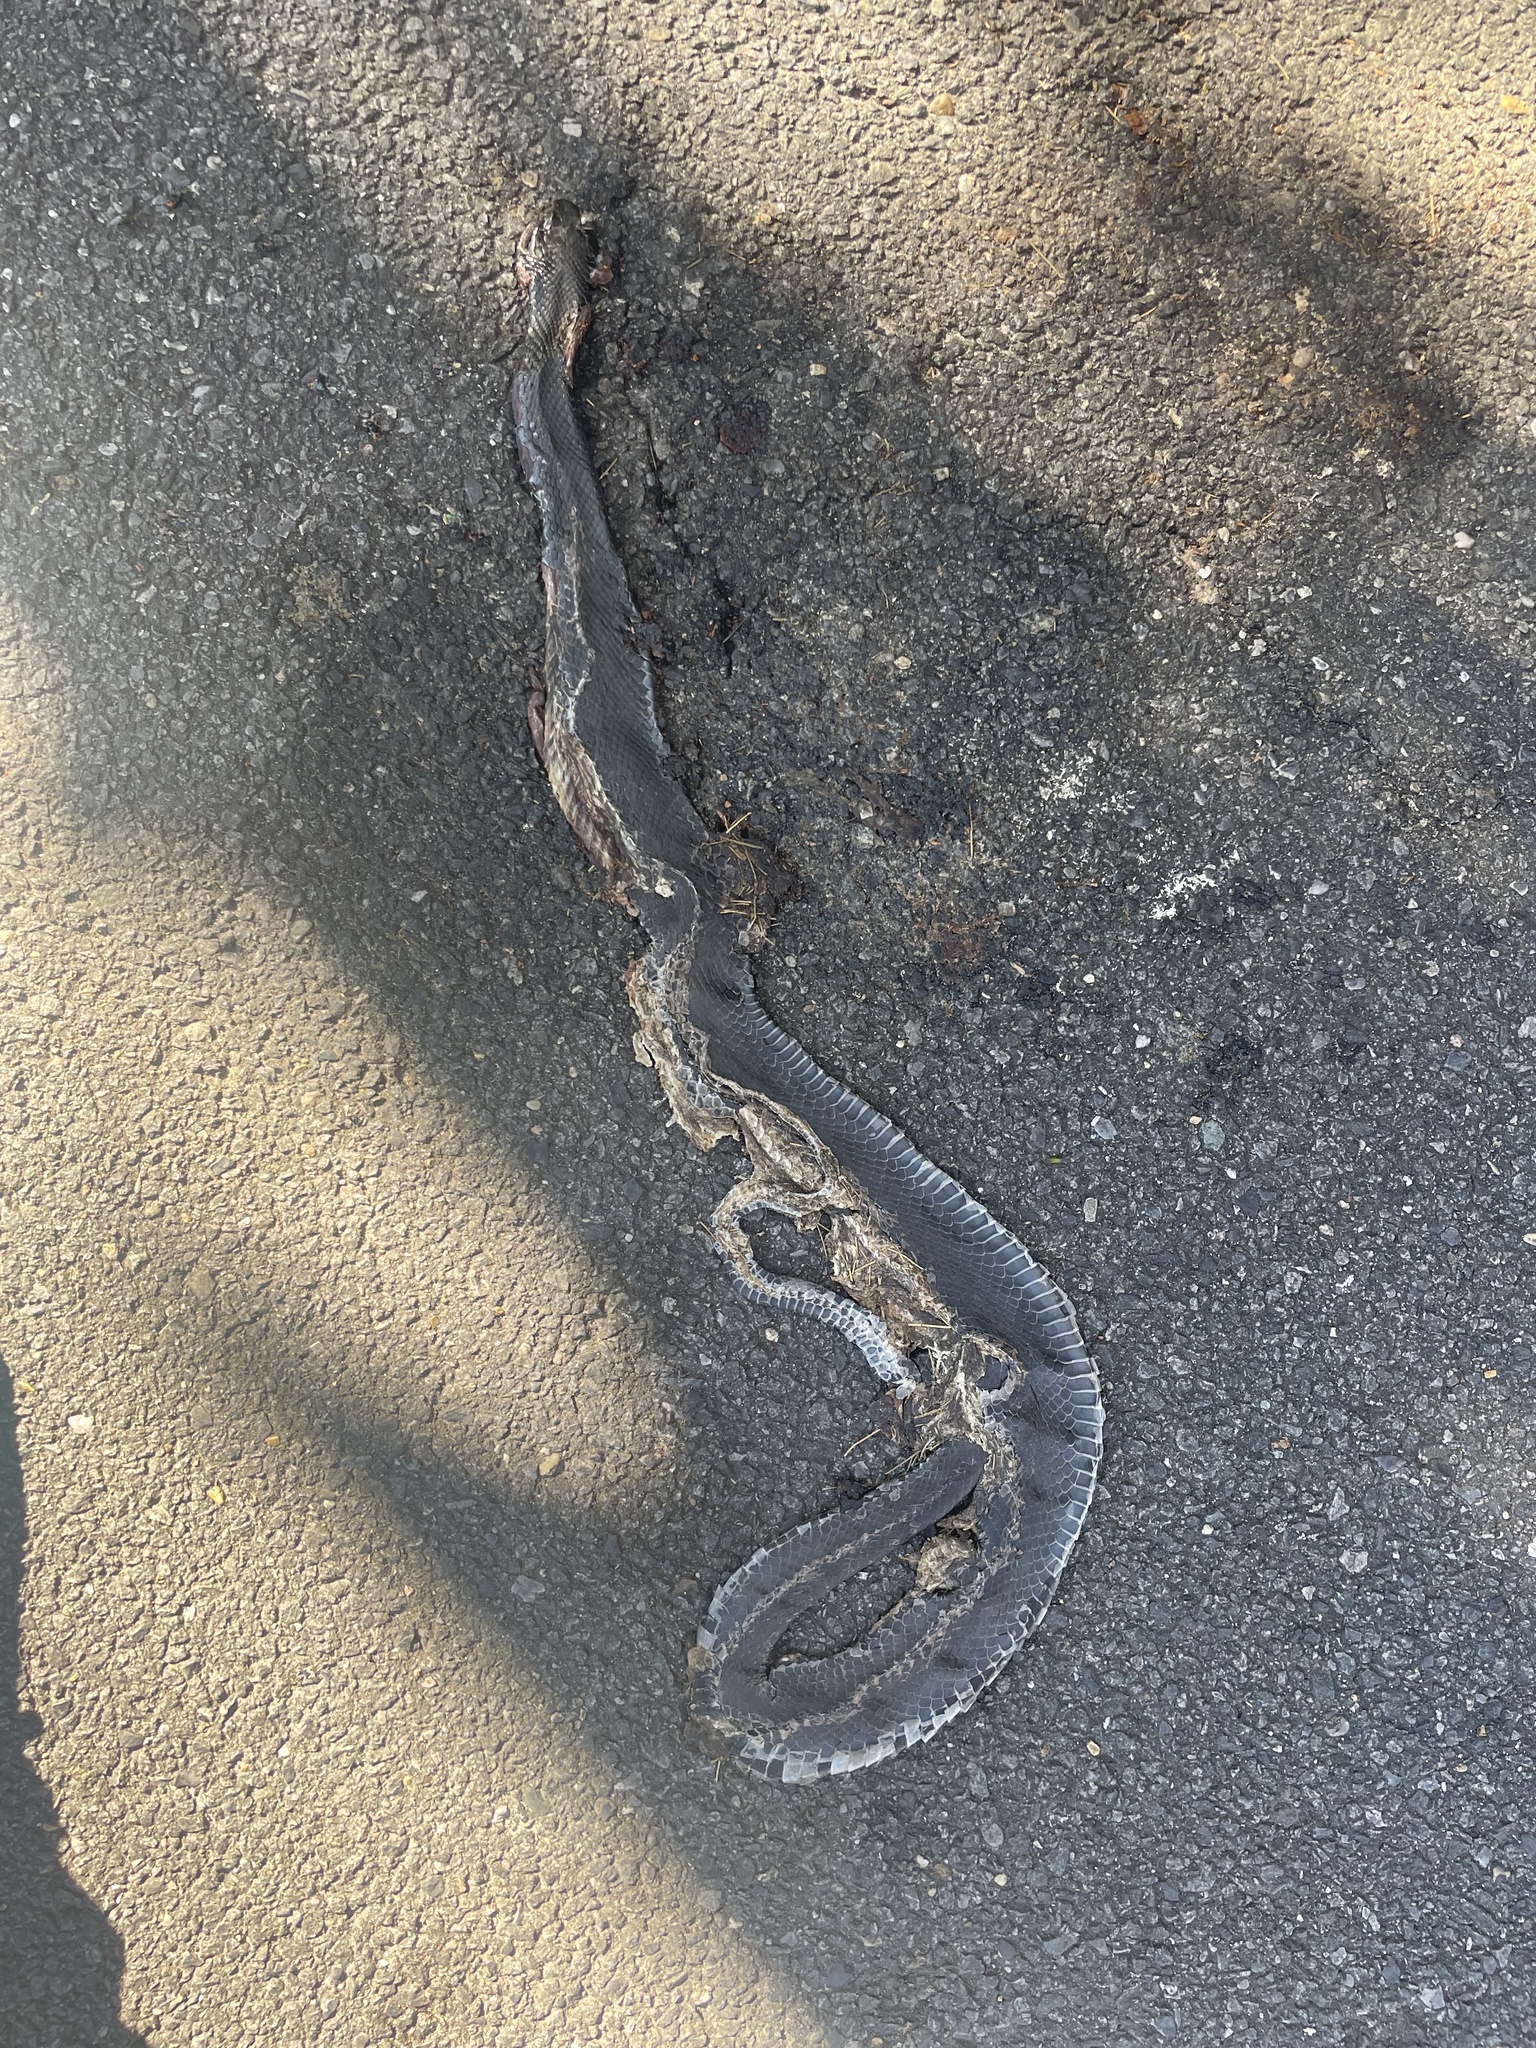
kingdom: Animalia
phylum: Chordata
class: Squamata
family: Colubridae
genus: Coluber
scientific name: Coluber constrictor
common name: Eastern racer
